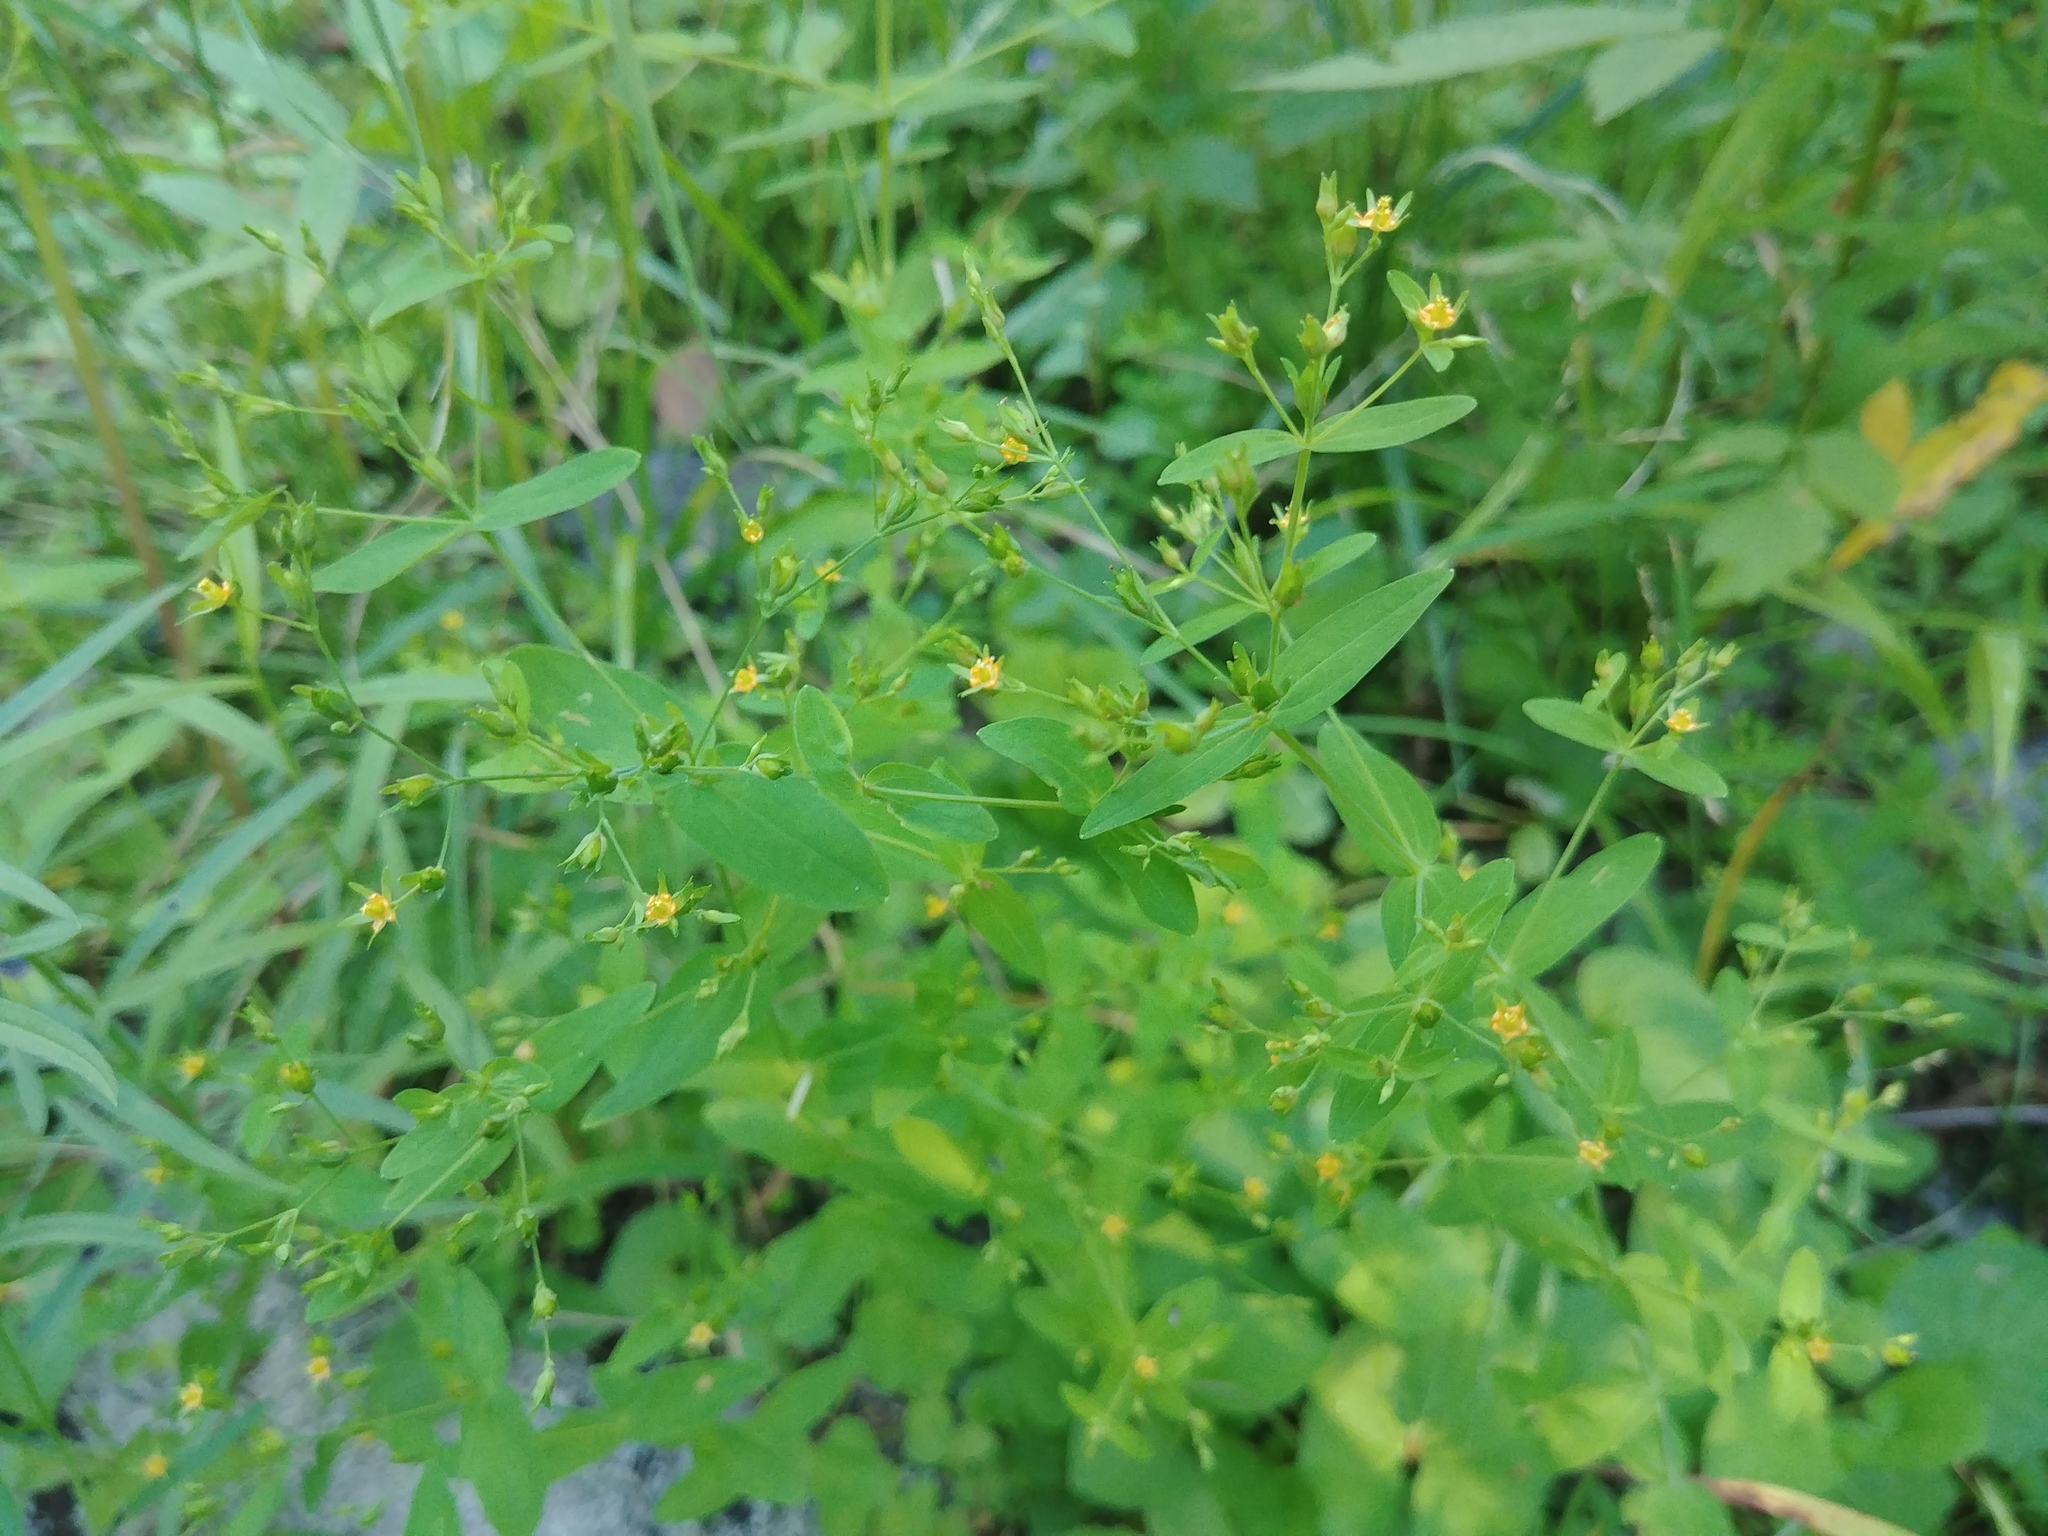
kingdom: Plantae
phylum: Tracheophyta
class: Magnoliopsida
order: Malpighiales
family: Hypericaceae
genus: Hypericum
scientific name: Hypericum mutilum
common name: Dwarf st. john's-wort
